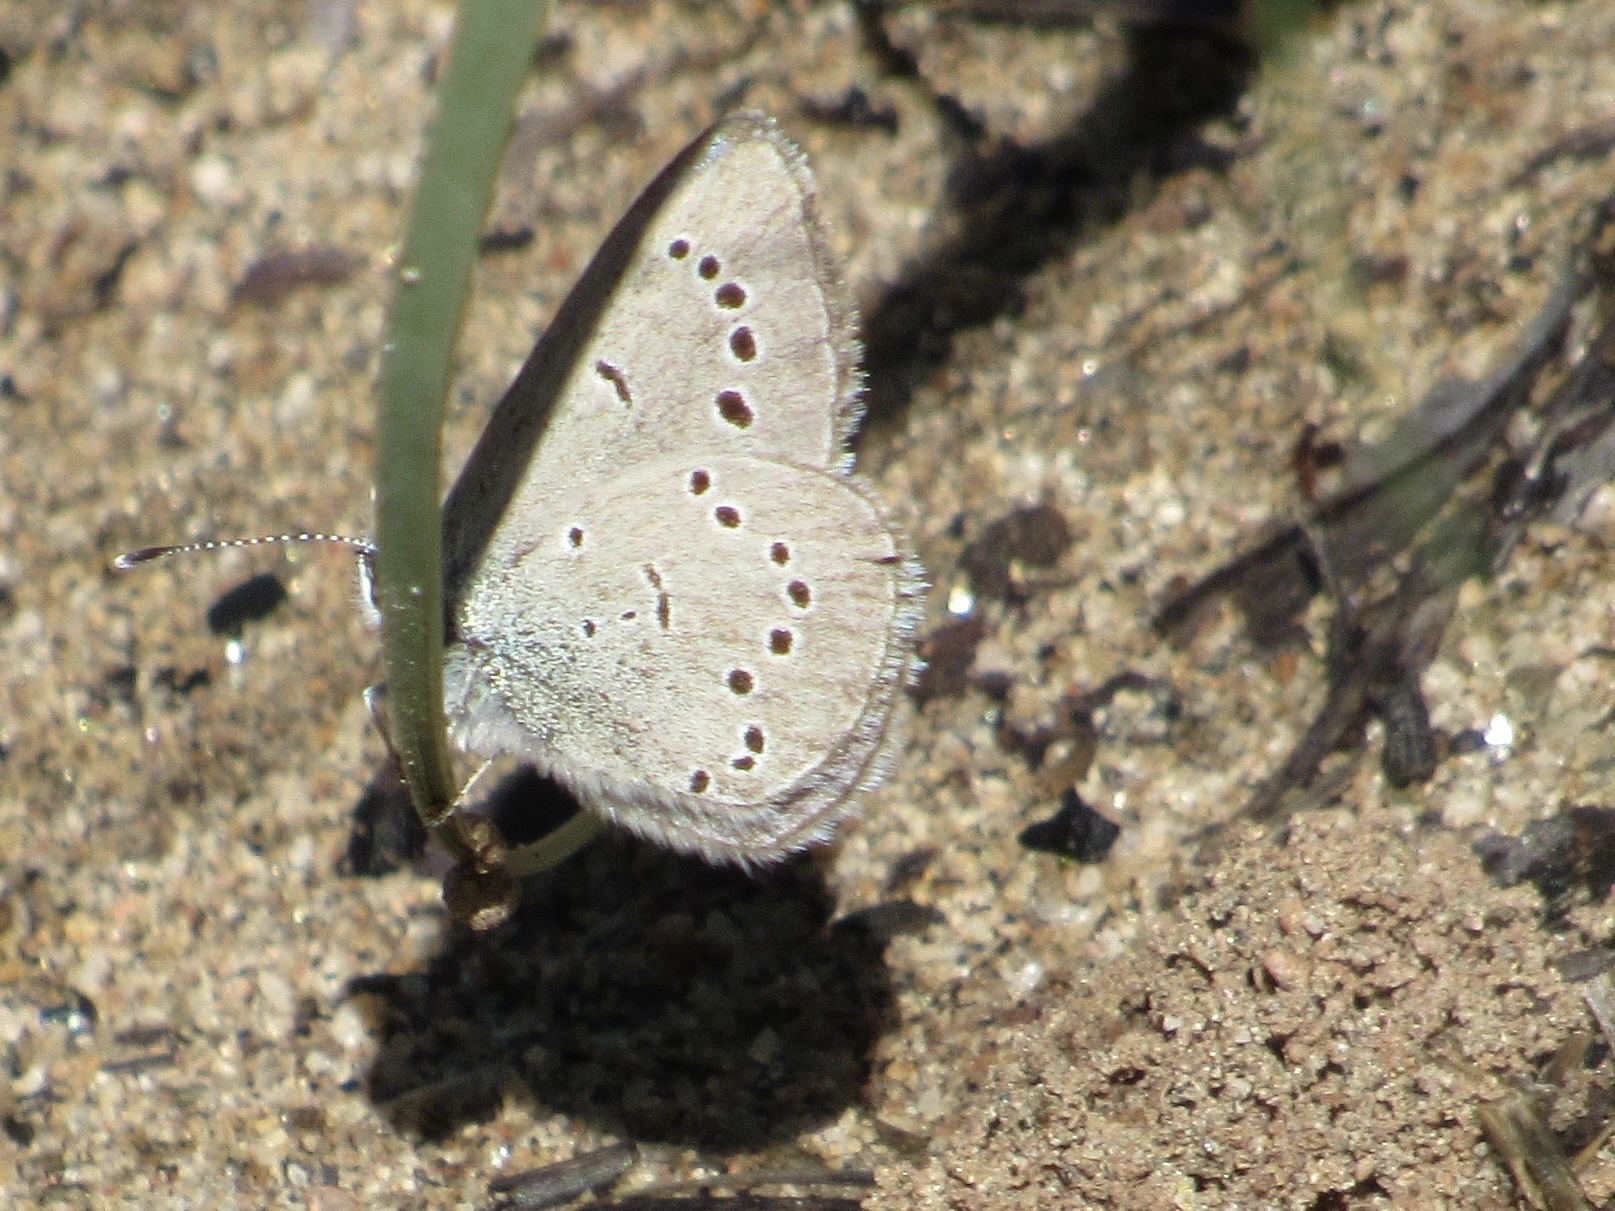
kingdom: Animalia
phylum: Arthropoda
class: Insecta
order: Lepidoptera
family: Lycaenidae
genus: Glaucopsyche
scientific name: Glaucopsyche lygdamus
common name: Silvery blue
